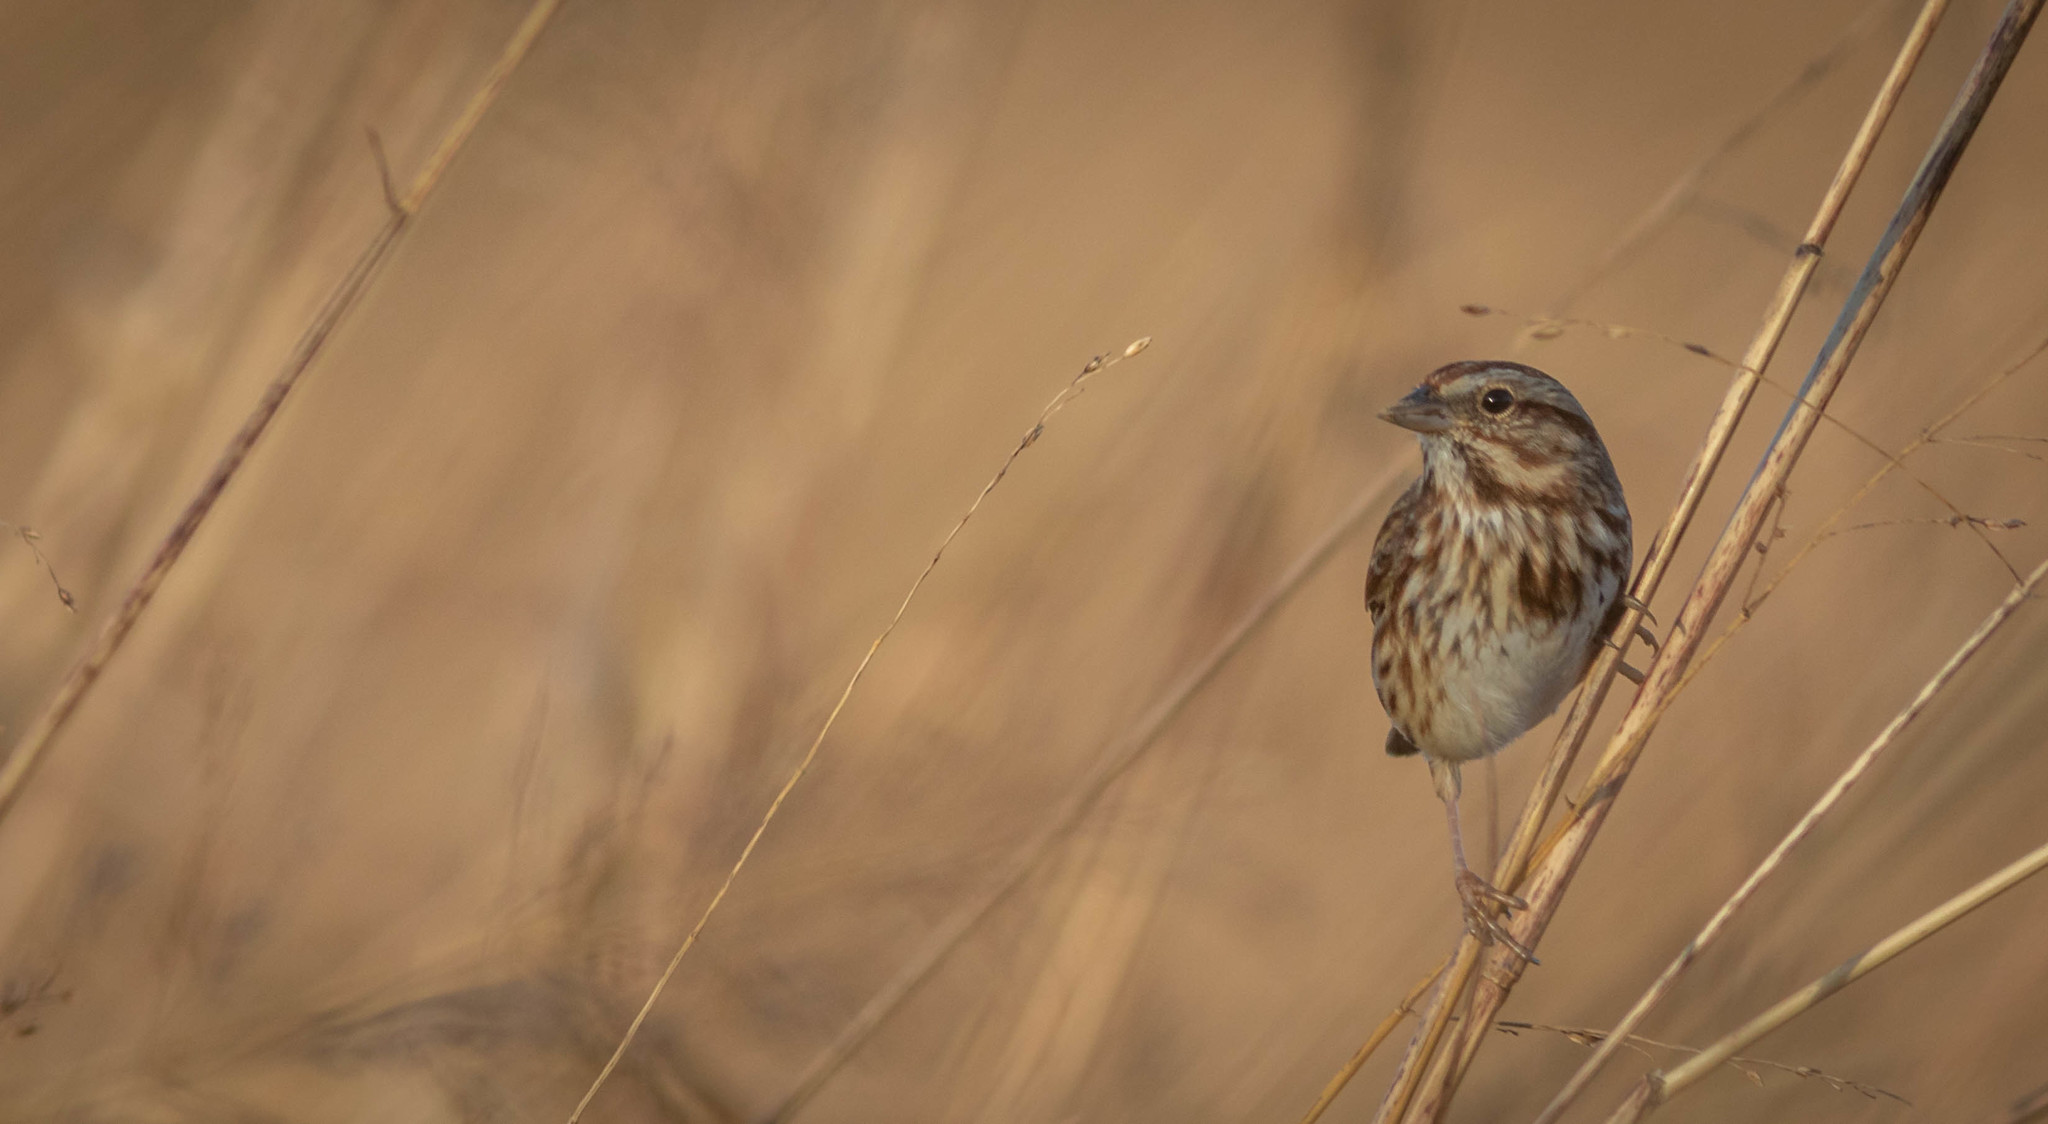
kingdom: Animalia
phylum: Chordata
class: Aves
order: Passeriformes
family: Passerellidae
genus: Melospiza
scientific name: Melospiza melodia
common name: Song sparrow
